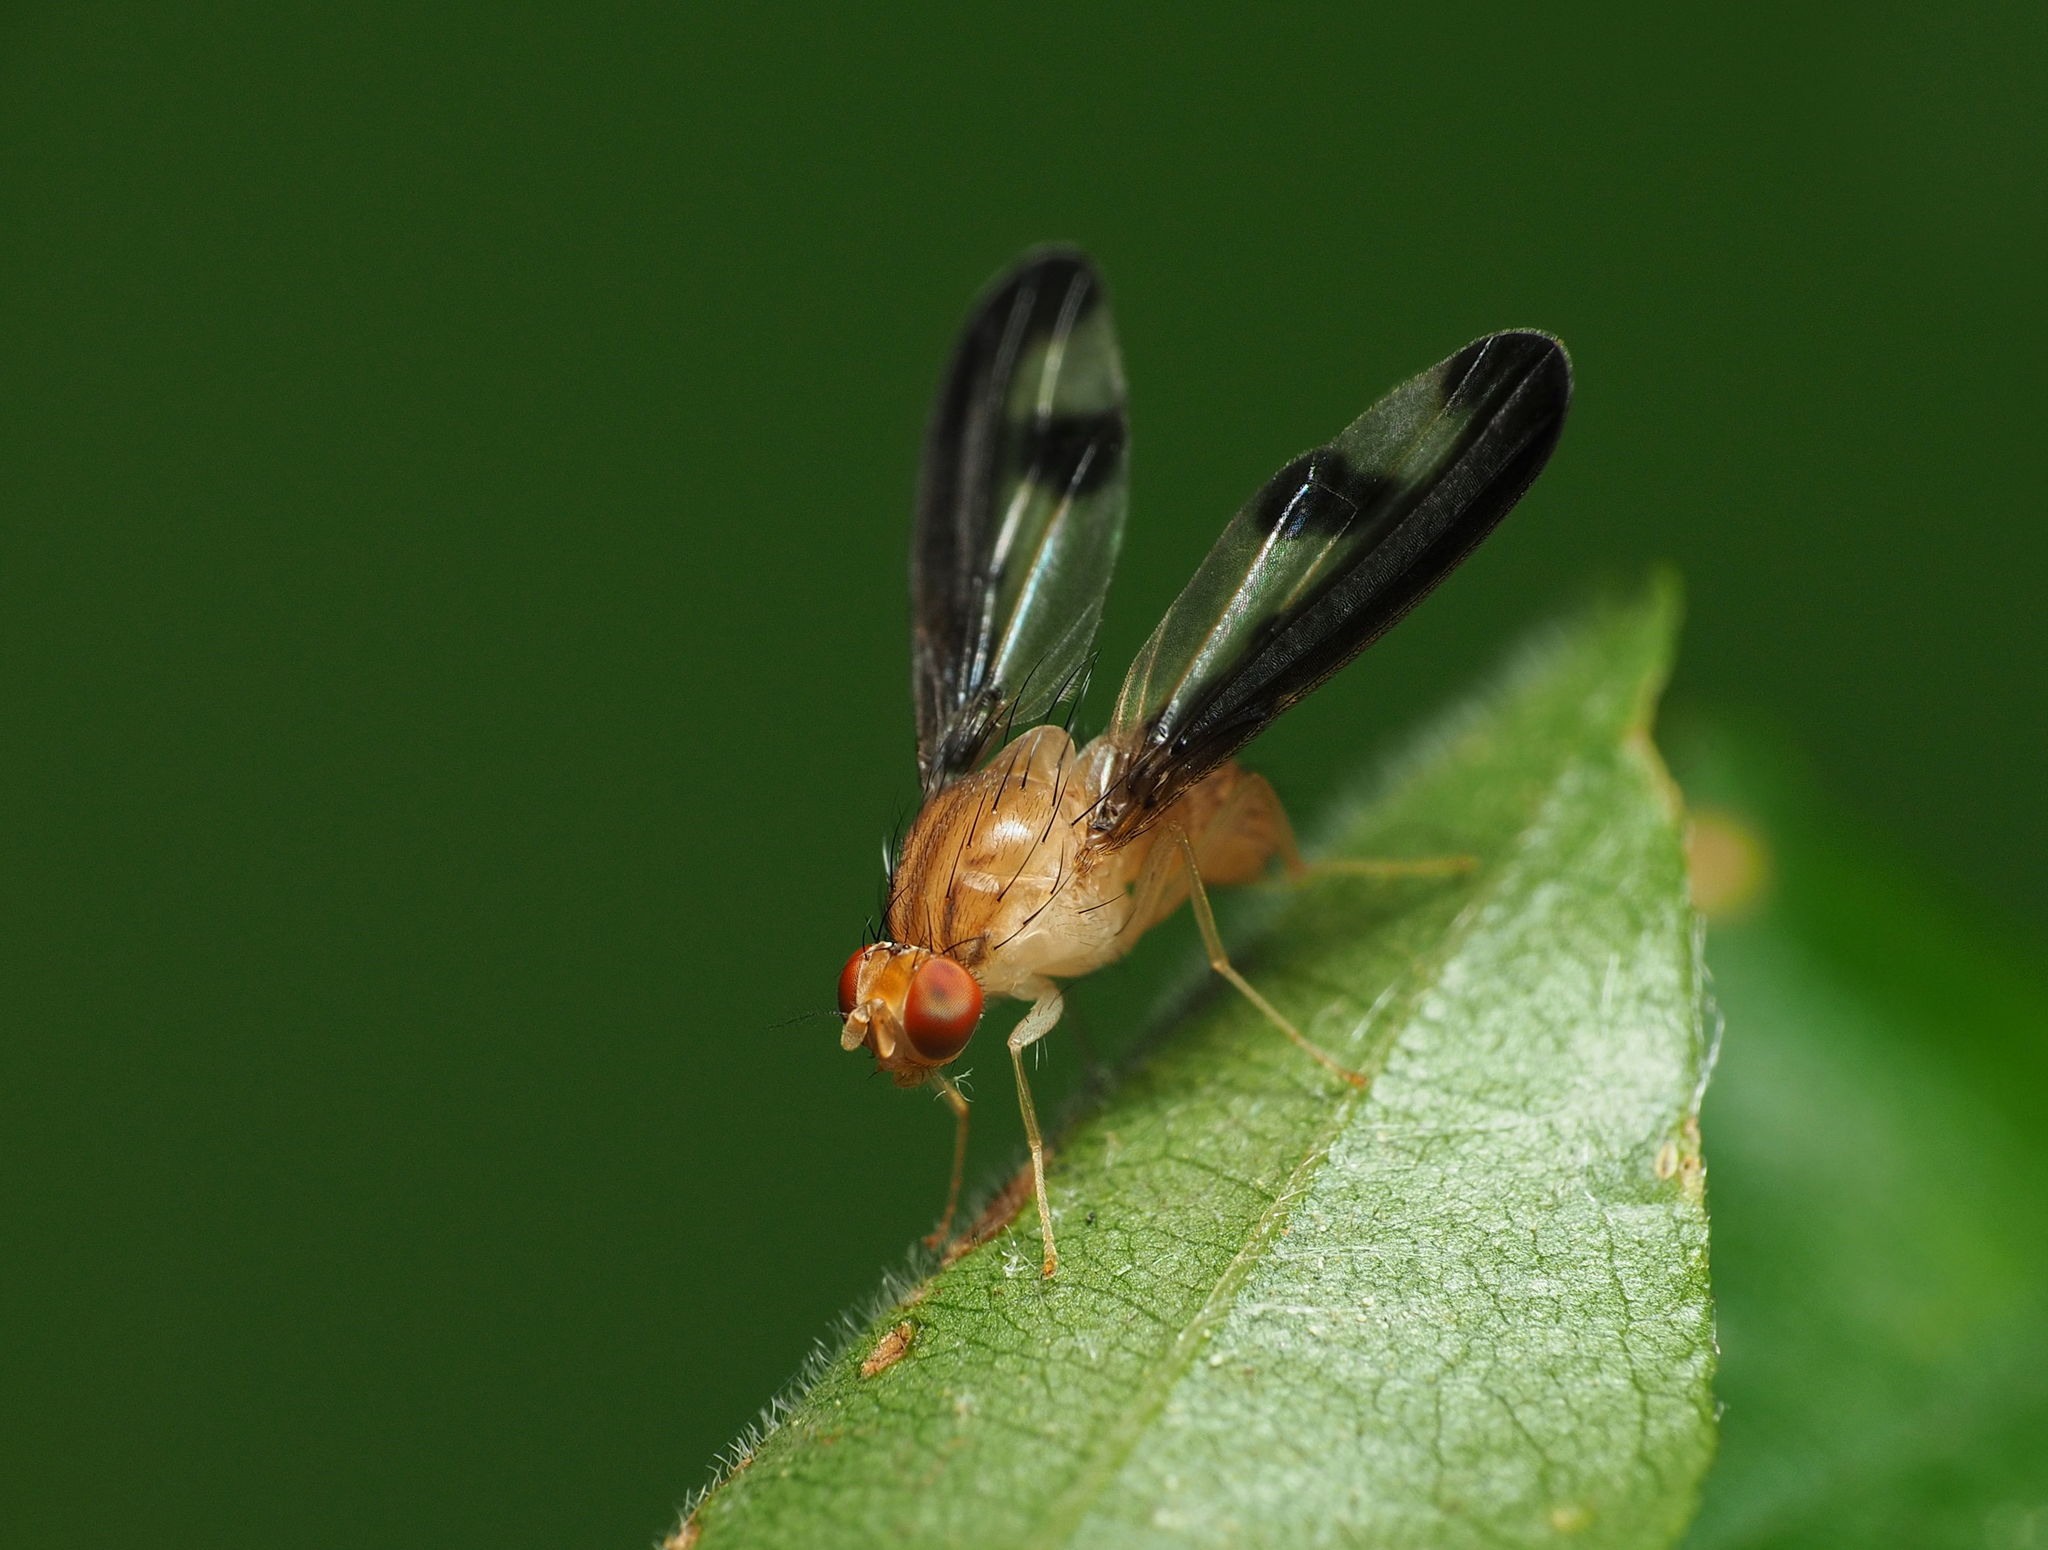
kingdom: Animalia
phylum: Arthropoda
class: Insecta
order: Diptera
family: Pallopteridae
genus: Toxonevra
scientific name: Toxonevra superba
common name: Antlered flutter fly
